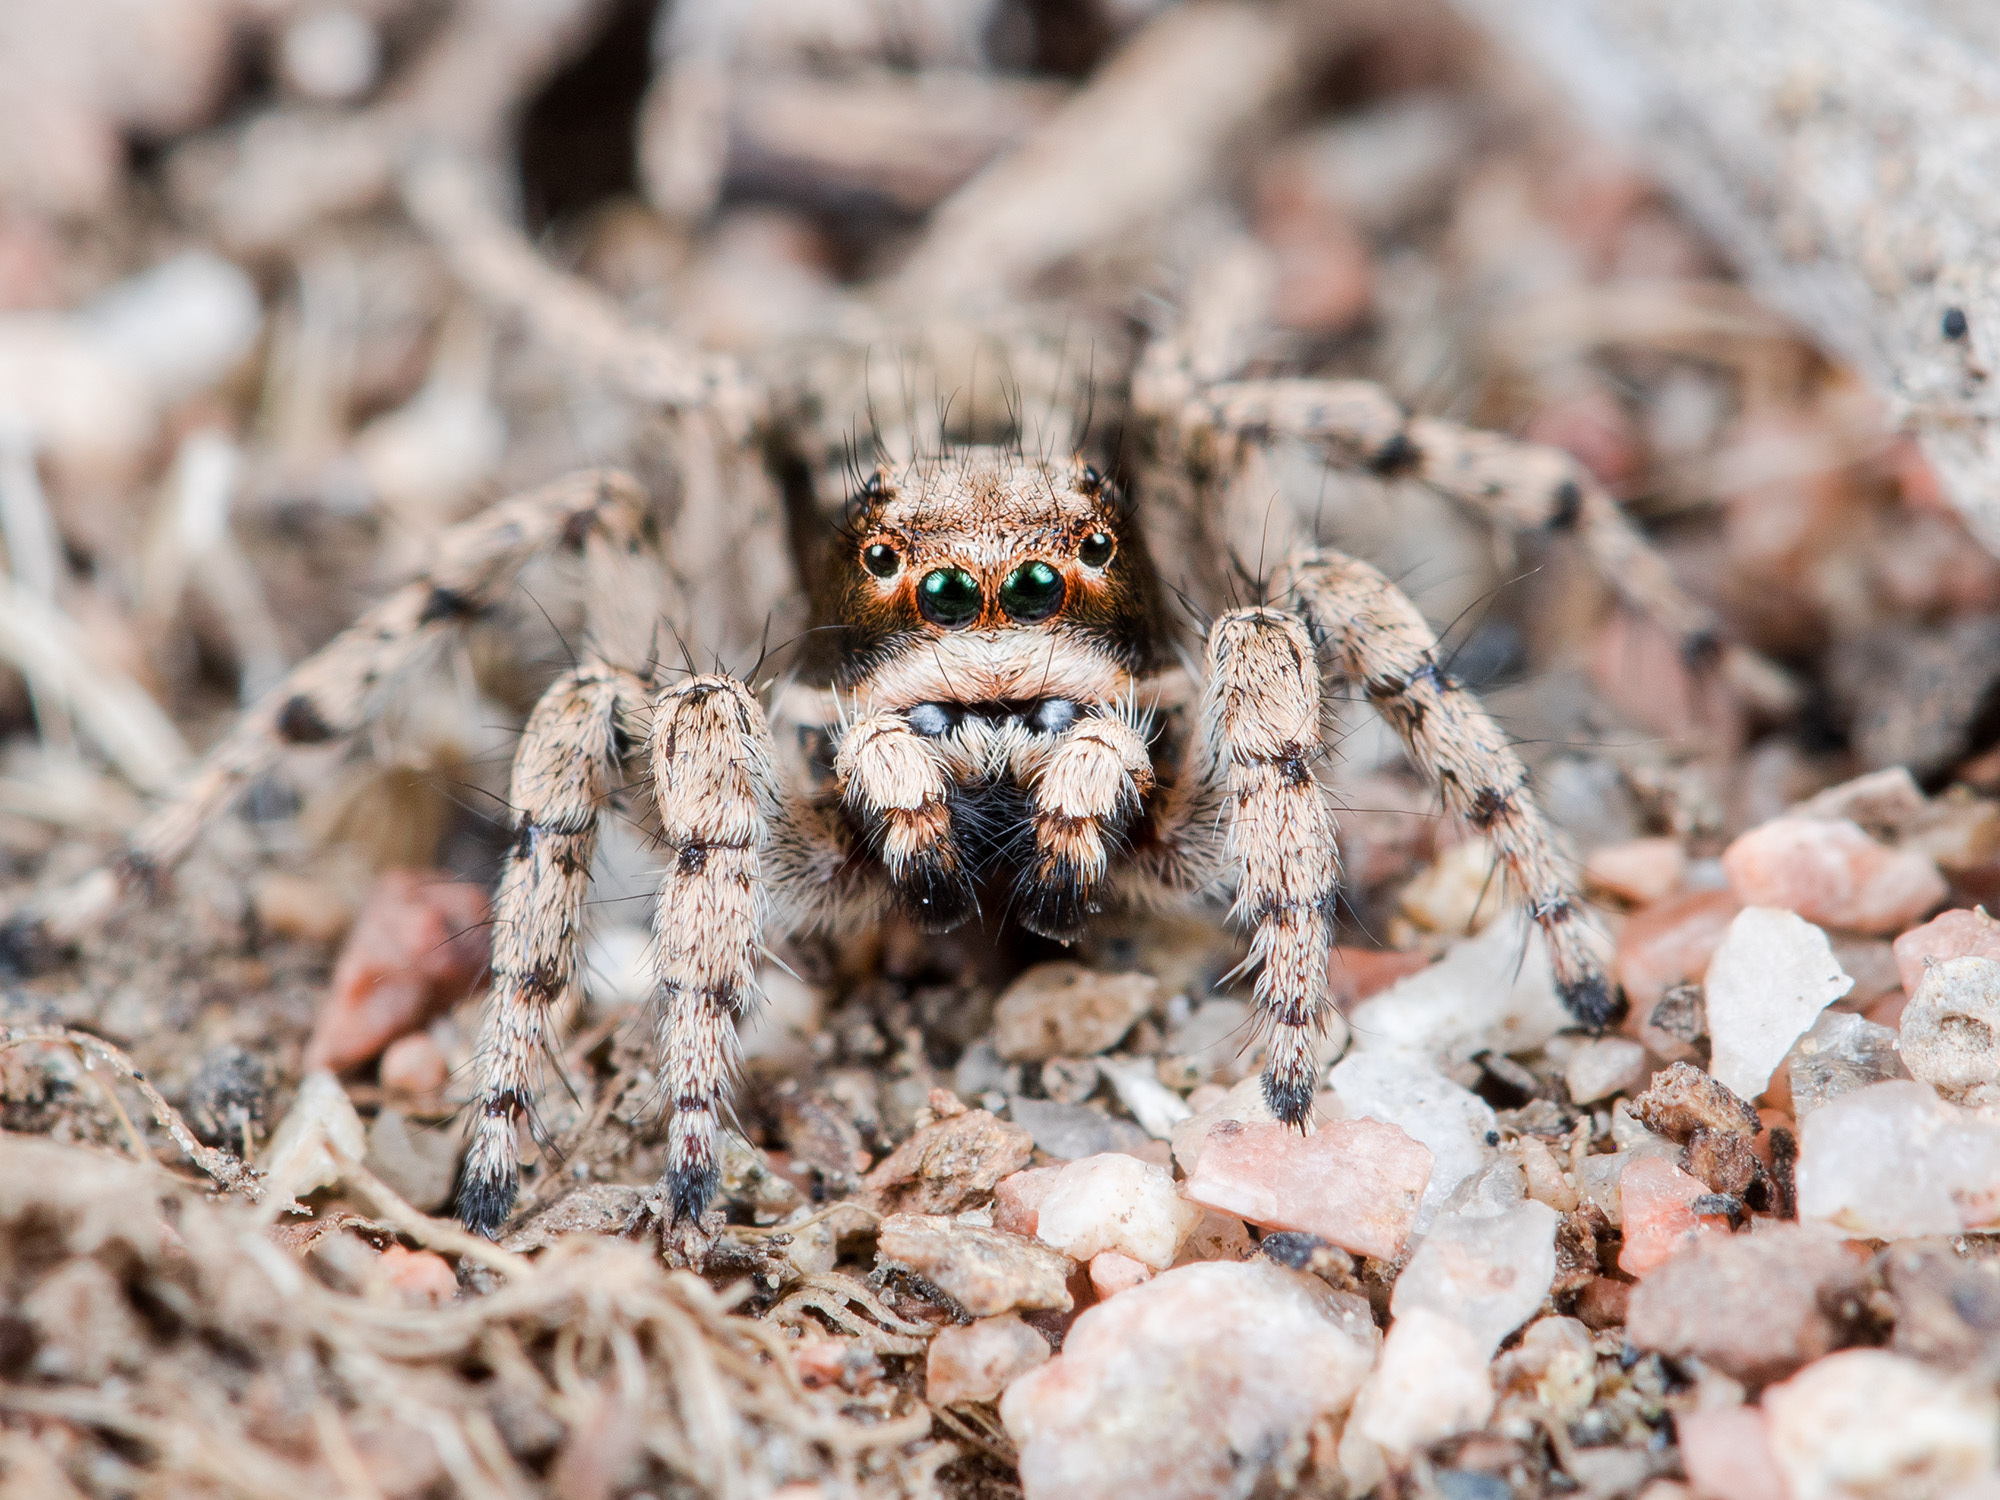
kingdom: Animalia
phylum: Arthropoda
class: Arachnida
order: Araneae
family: Salticidae
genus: Rafalus
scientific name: Rafalus variegatus
